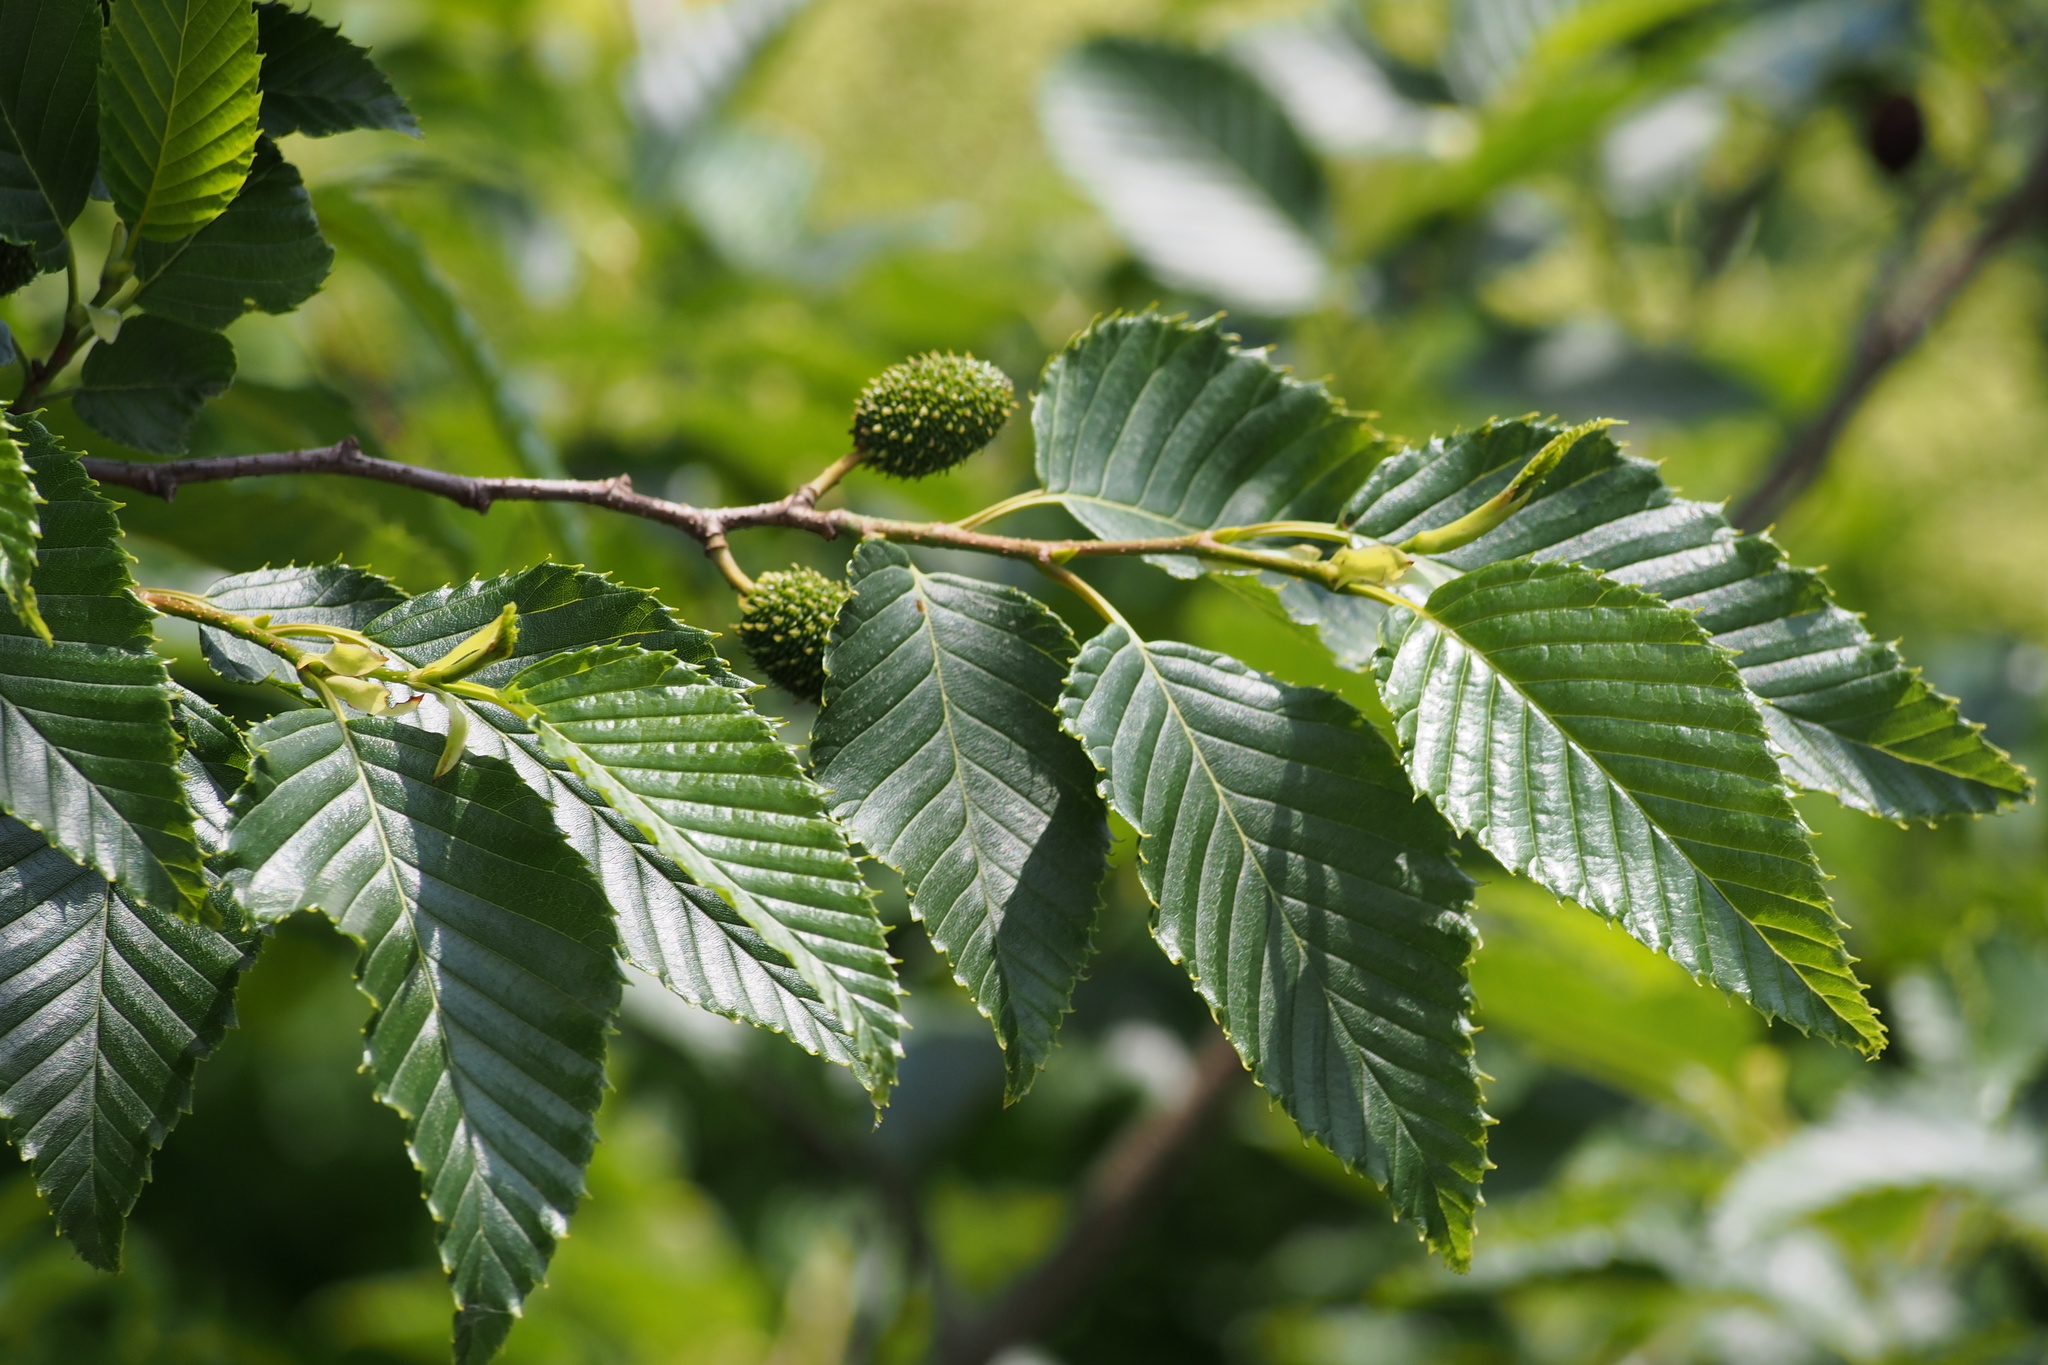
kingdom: Plantae
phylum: Tracheophyta
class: Magnoliopsida
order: Fagales
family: Betulaceae
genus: Alnus
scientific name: Alnus sieboldiana
